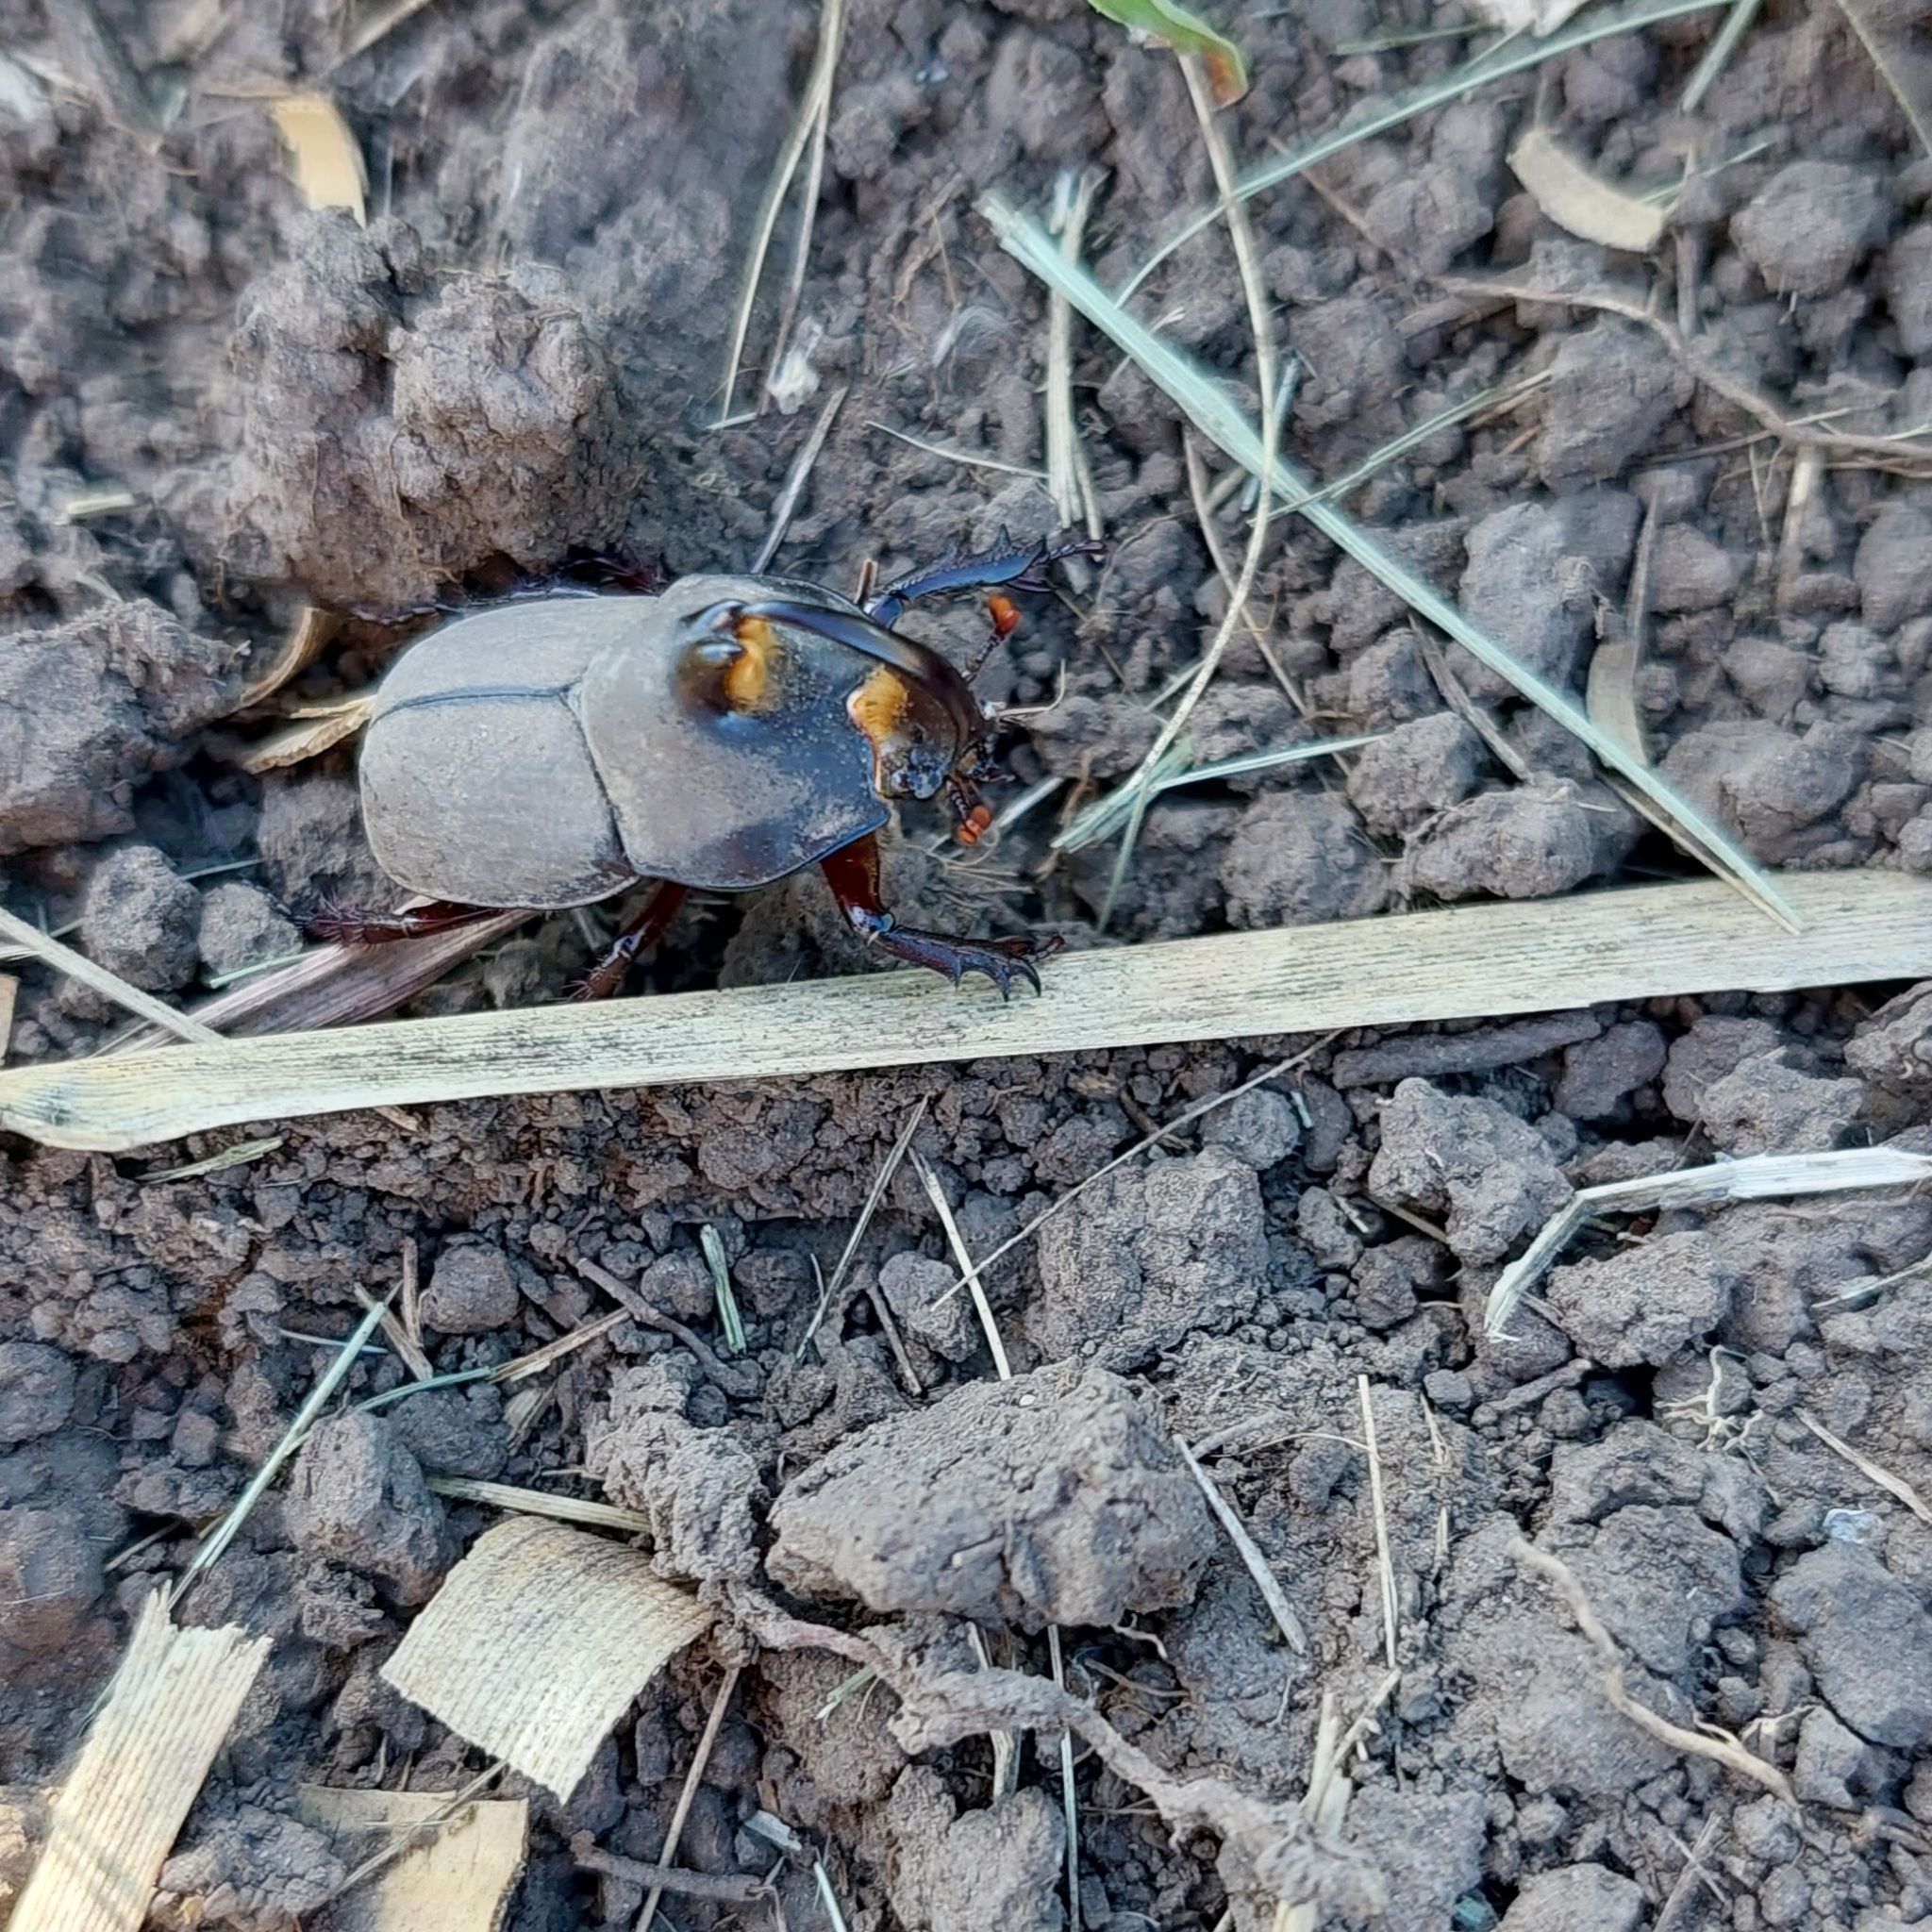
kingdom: Animalia
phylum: Arthropoda
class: Insecta
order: Coleoptera
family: Scarabaeidae
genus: Diloboderus
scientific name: Diloboderus abderus
